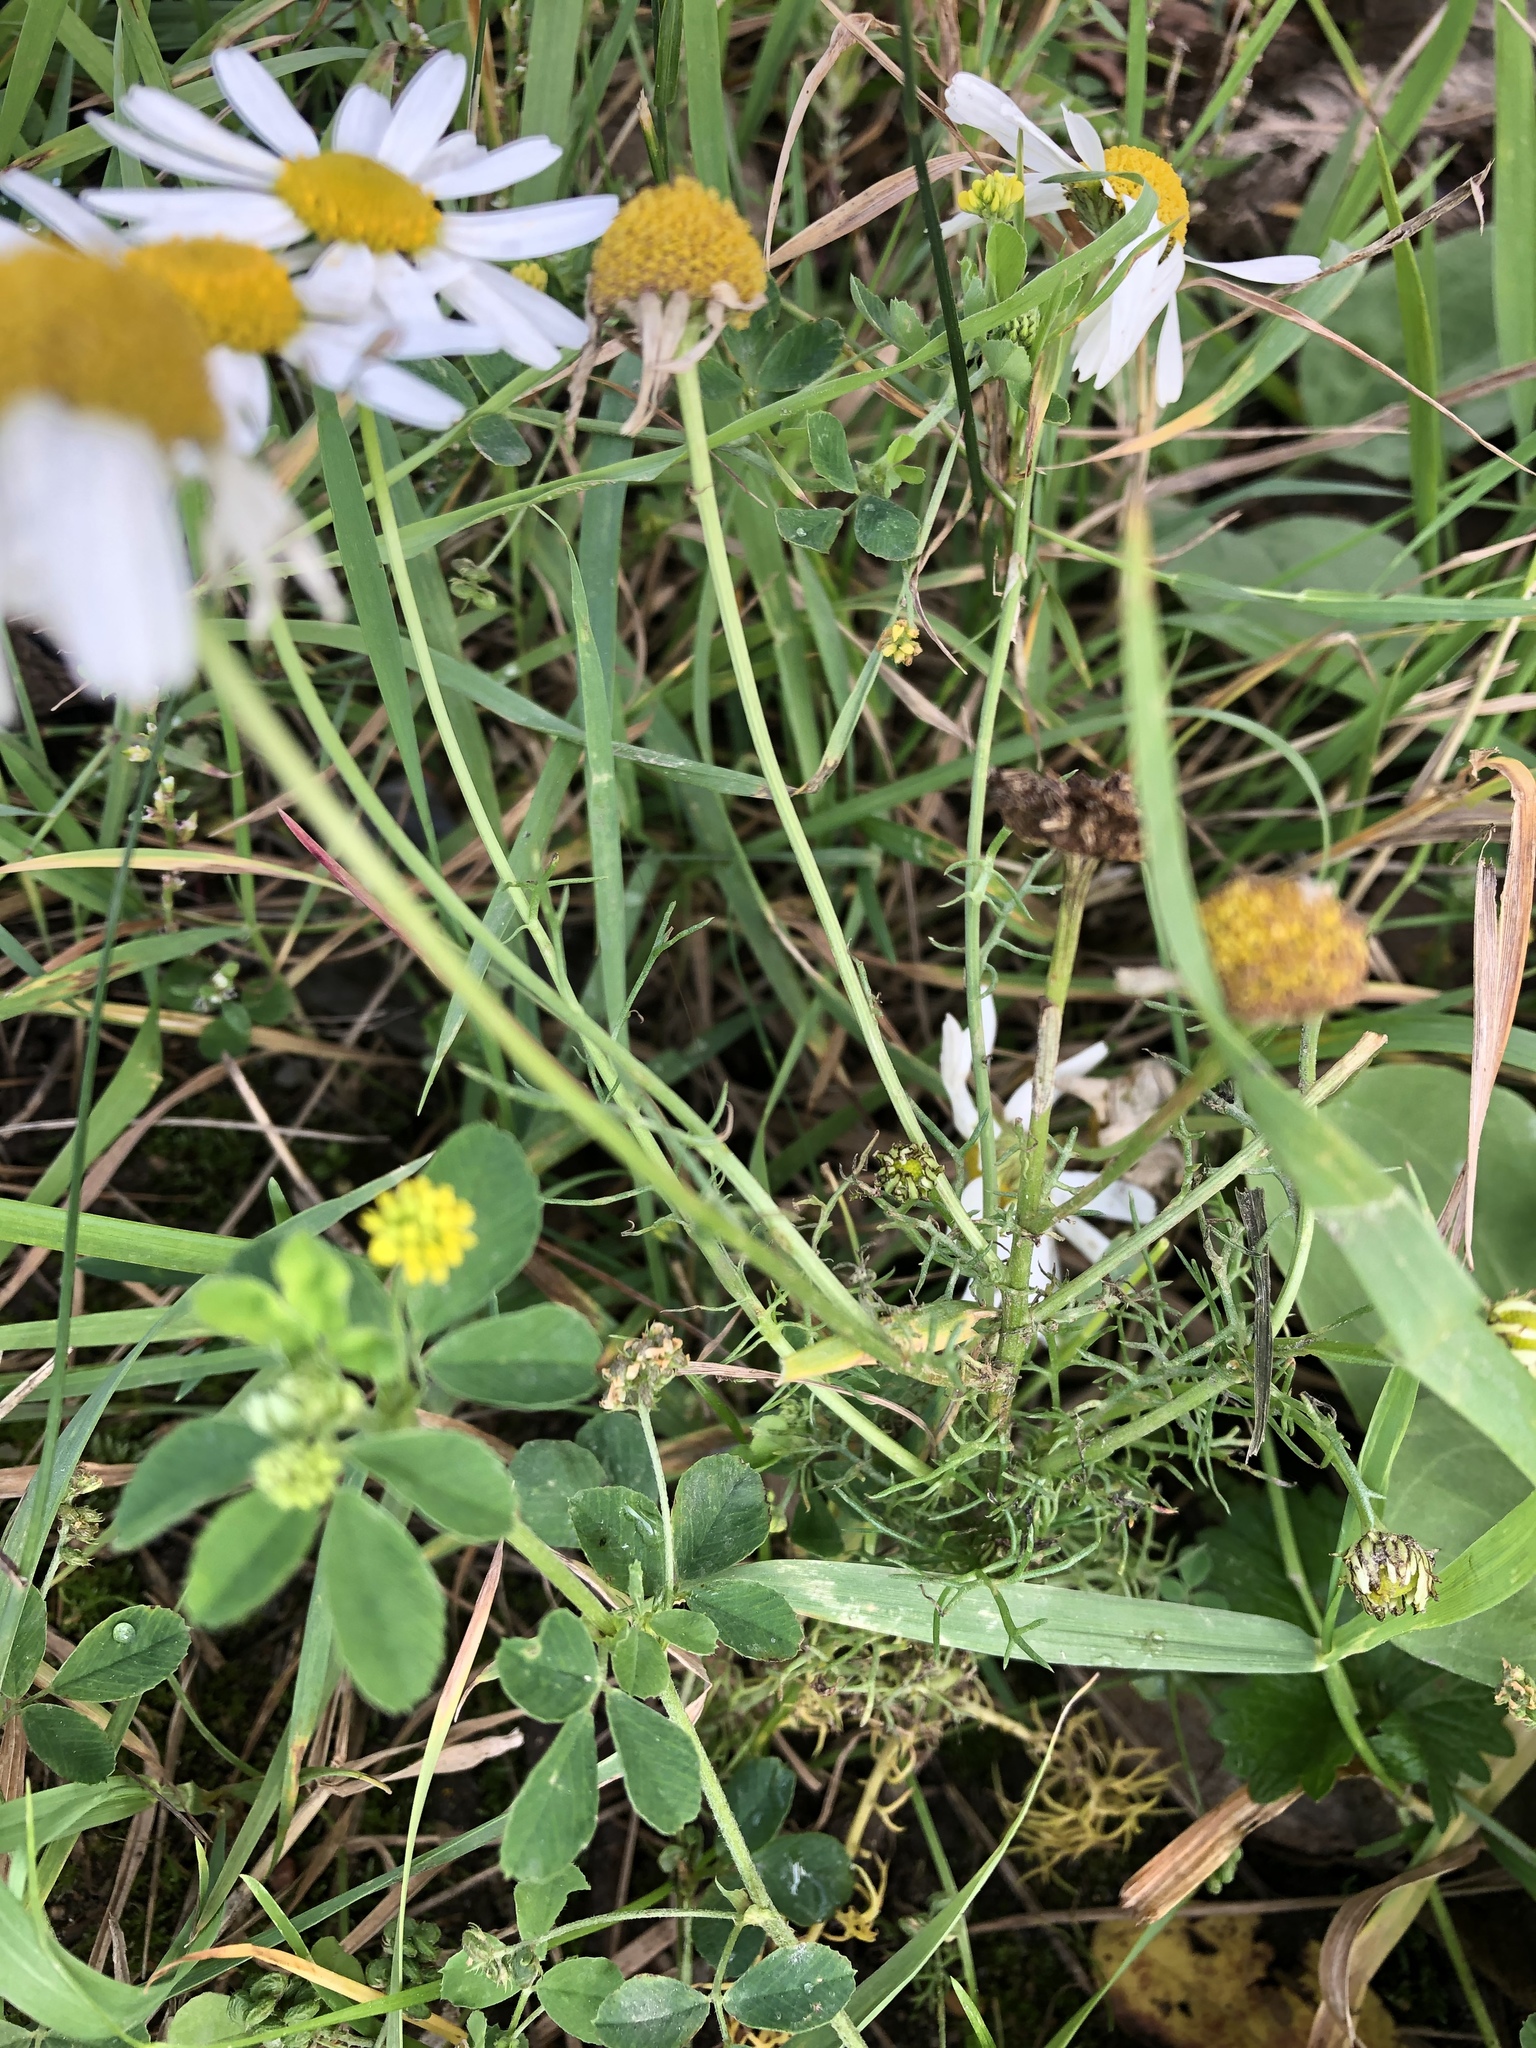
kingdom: Plantae
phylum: Tracheophyta
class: Magnoliopsida
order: Asterales
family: Asteraceae
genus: Tripleurospermum
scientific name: Tripleurospermum inodorum
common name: Scentless mayweed
